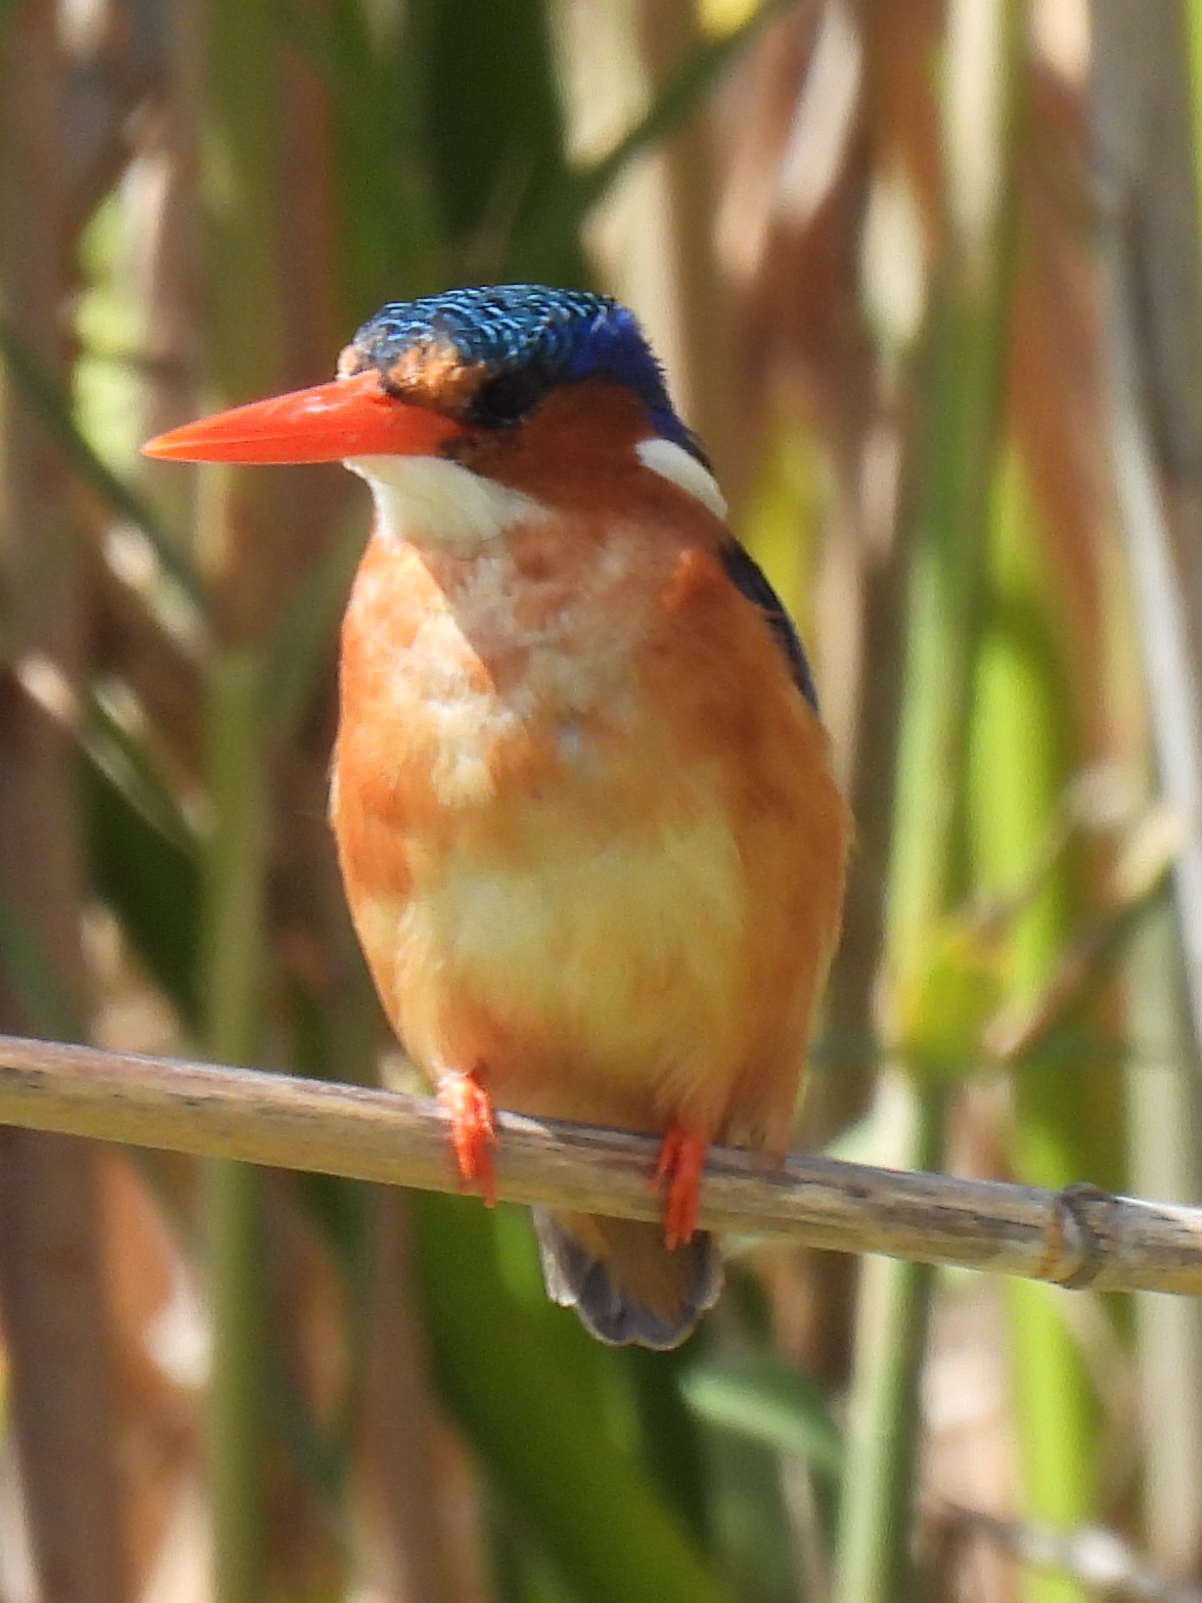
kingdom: Animalia
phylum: Chordata
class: Aves
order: Coraciiformes
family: Alcedinidae
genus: Corythornis
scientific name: Corythornis cristatus
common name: Malachite kingfisher
